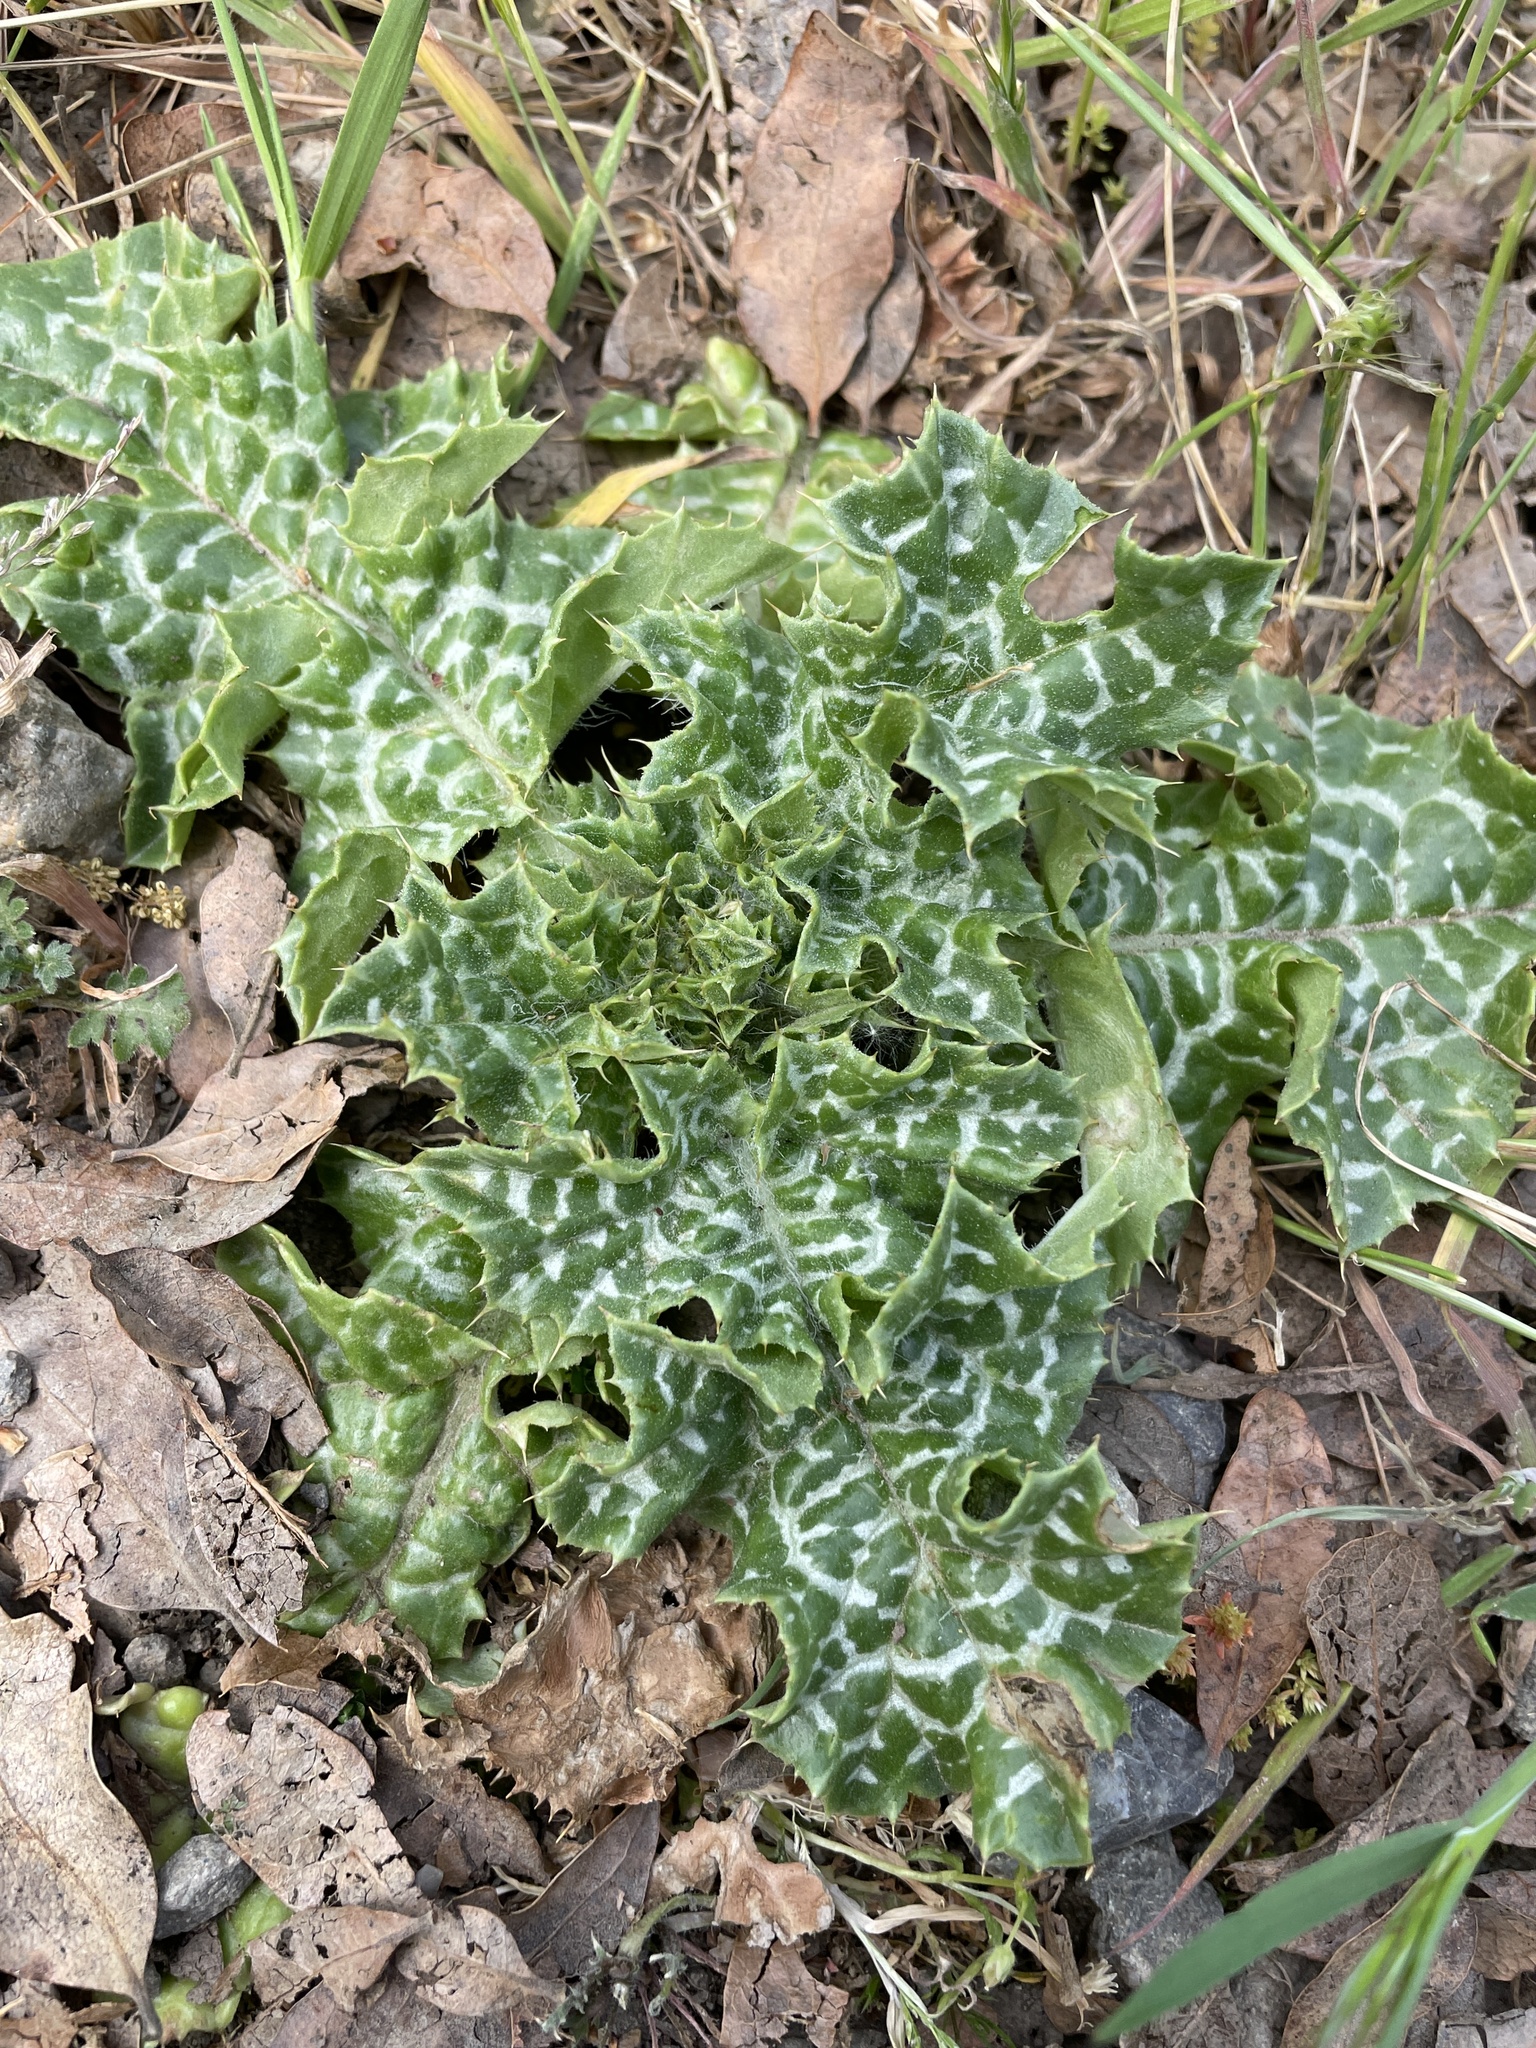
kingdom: Plantae
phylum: Tracheophyta
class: Magnoliopsida
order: Asterales
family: Asteraceae
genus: Silybum
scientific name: Silybum marianum
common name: Milk thistle
